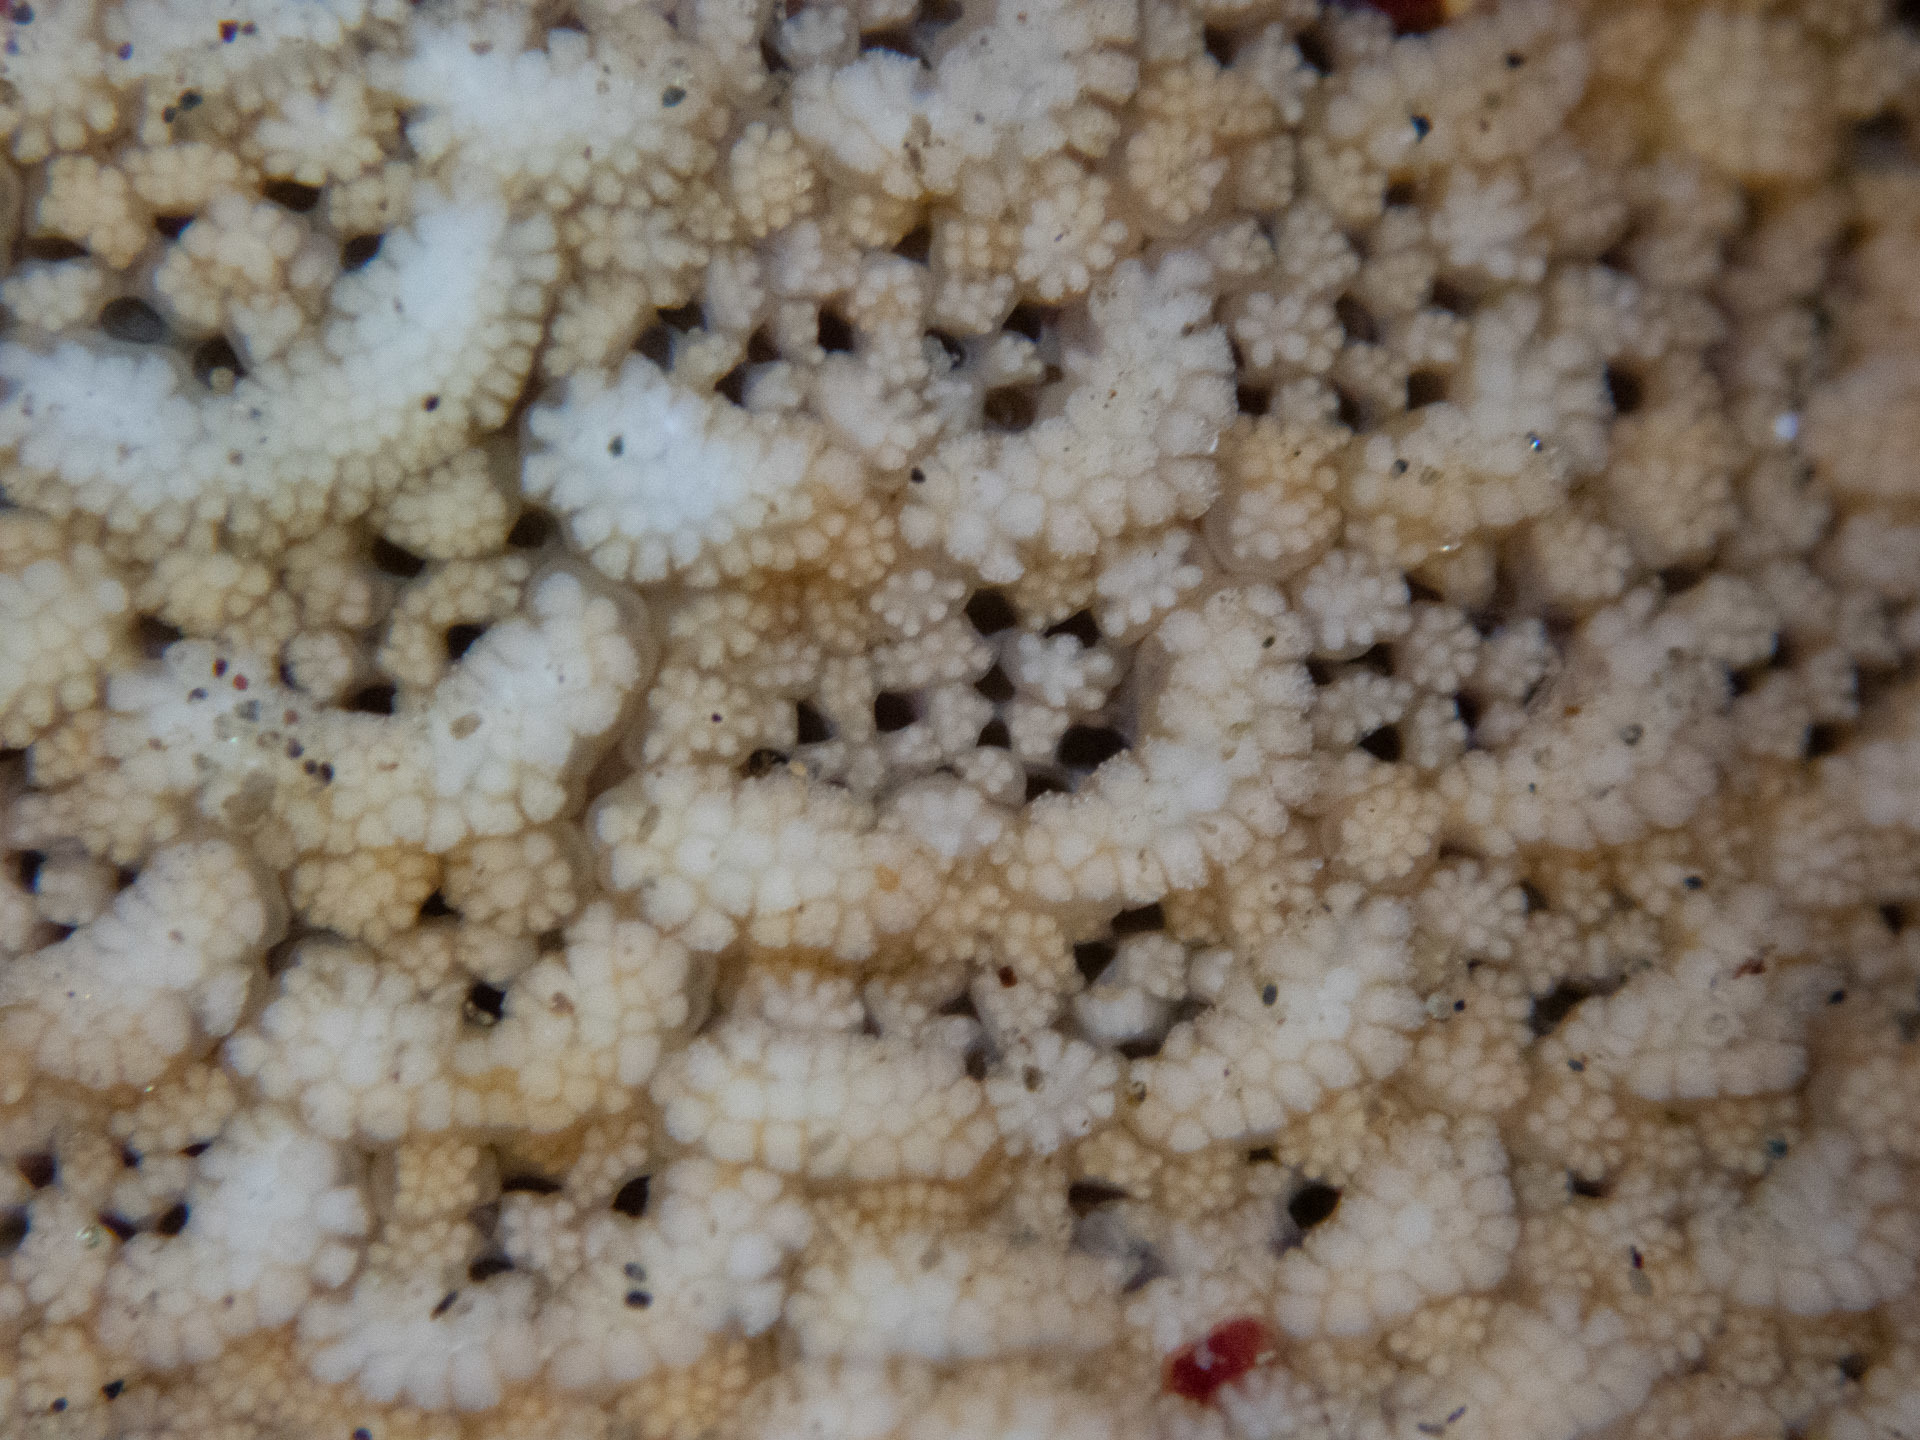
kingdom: Animalia
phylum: Echinodermata
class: Asteroidea
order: Valvatida
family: Asterinidae
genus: Patiria
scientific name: Patiria miniata
